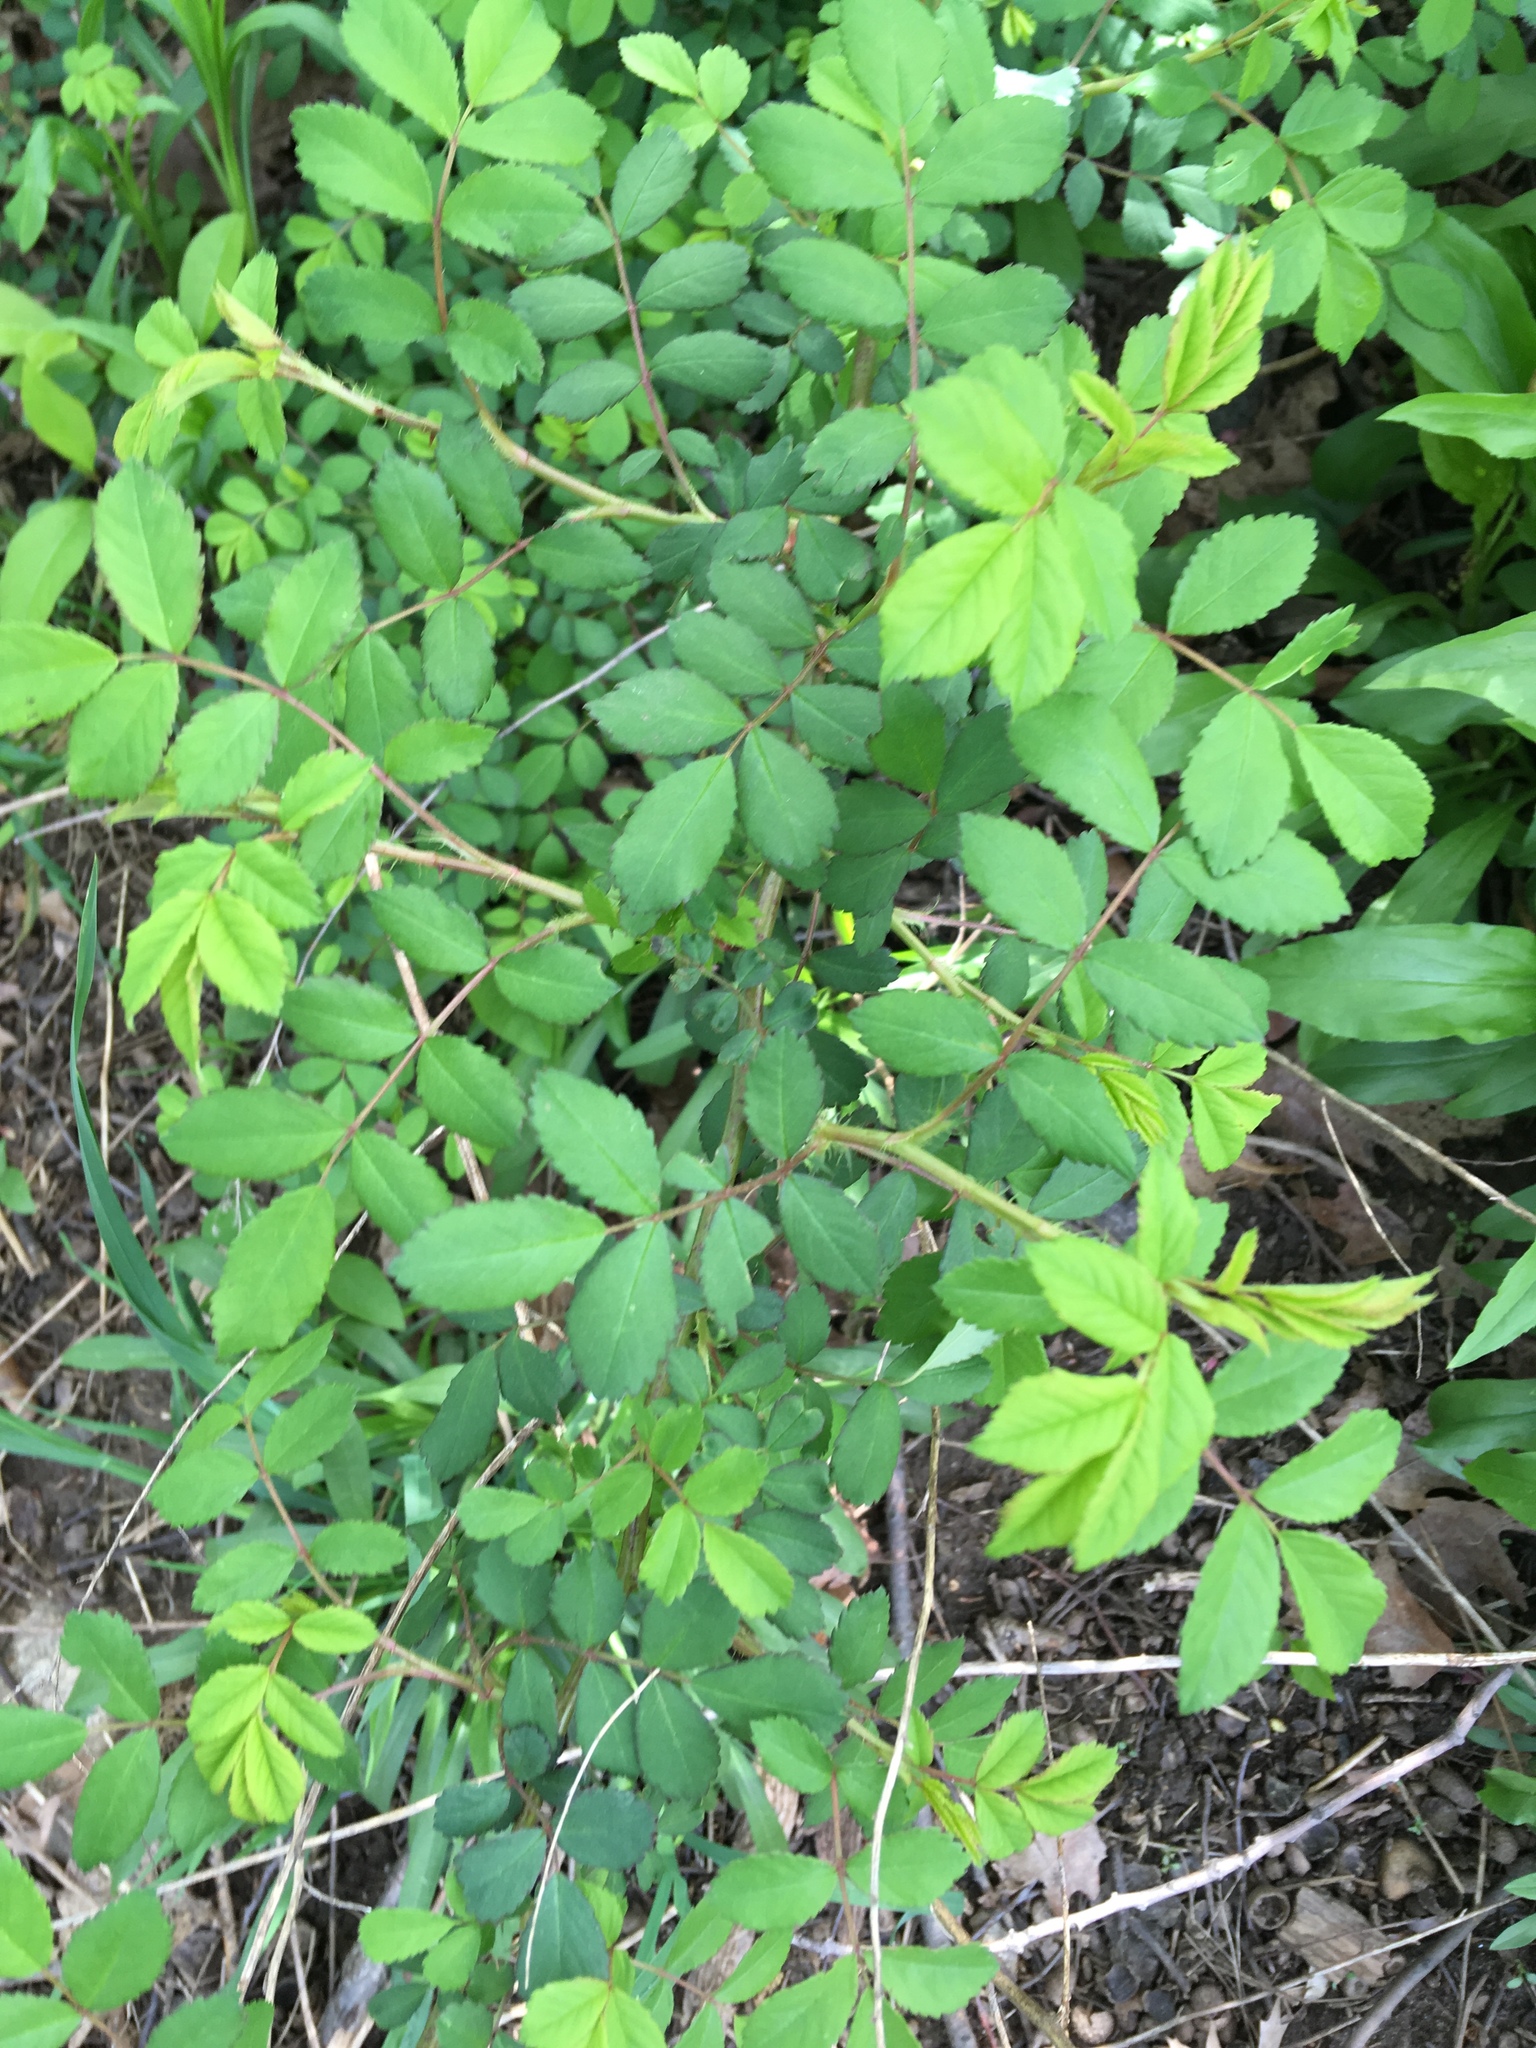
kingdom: Plantae
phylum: Tracheophyta
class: Magnoliopsida
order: Rosales
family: Rosaceae
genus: Rosa
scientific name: Rosa multiflora
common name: Multiflora rose
